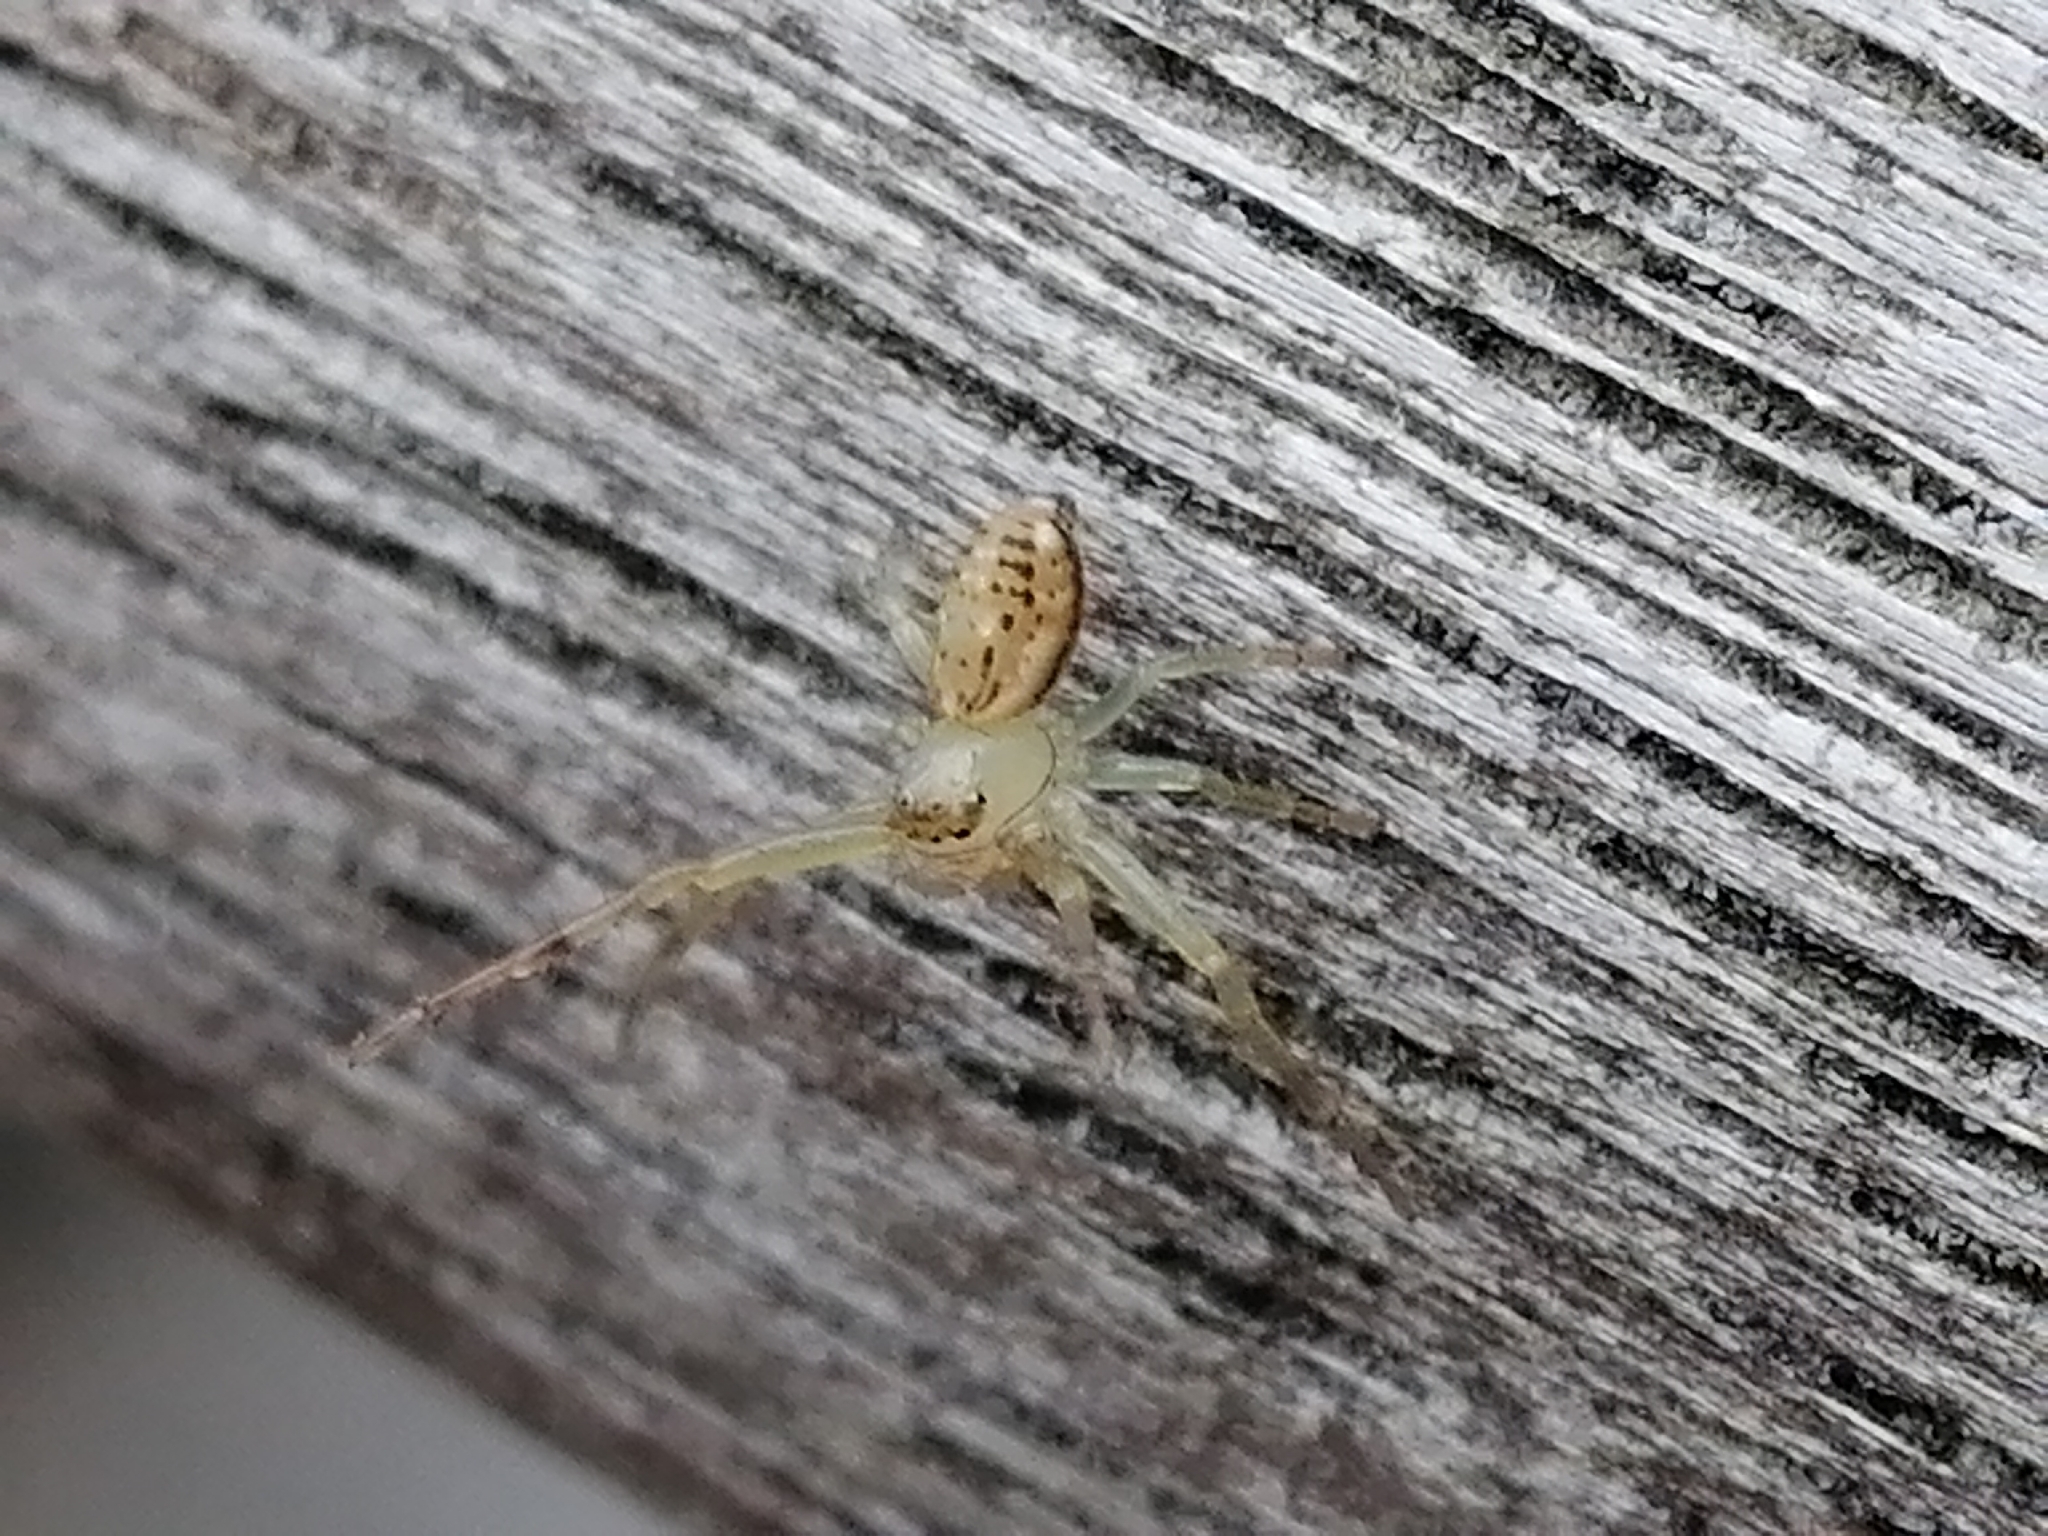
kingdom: Animalia
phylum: Arthropoda
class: Arachnida
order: Araneae
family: Thomisidae
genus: Diaea
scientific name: Diaea ambara
